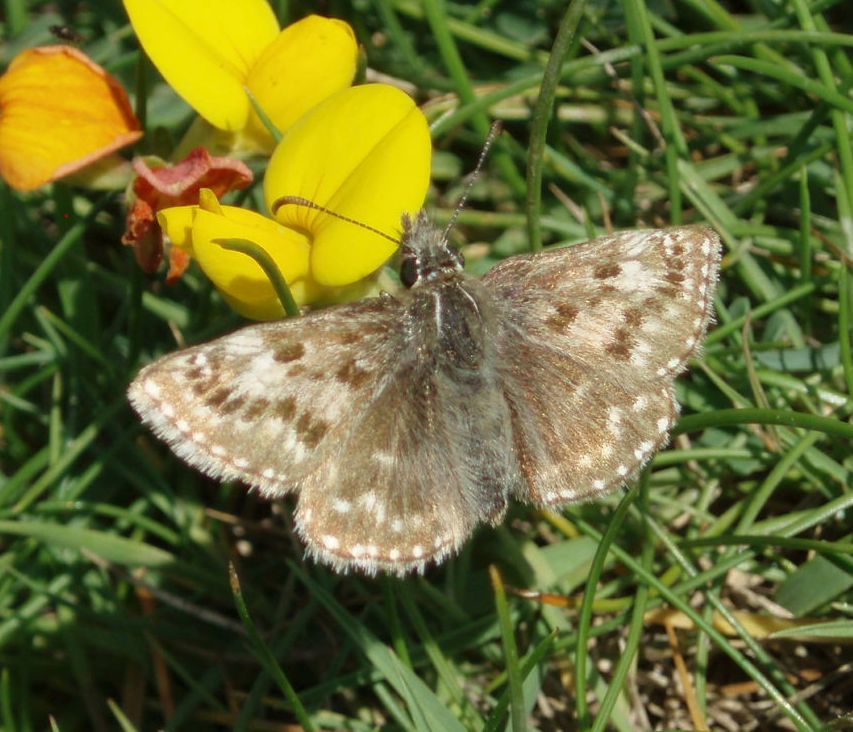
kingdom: Animalia
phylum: Arthropoda
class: Insecta
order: Lepidoptera
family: Hesperiidae
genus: Erynnis
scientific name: Erynnis tages
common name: Dingy skipper
